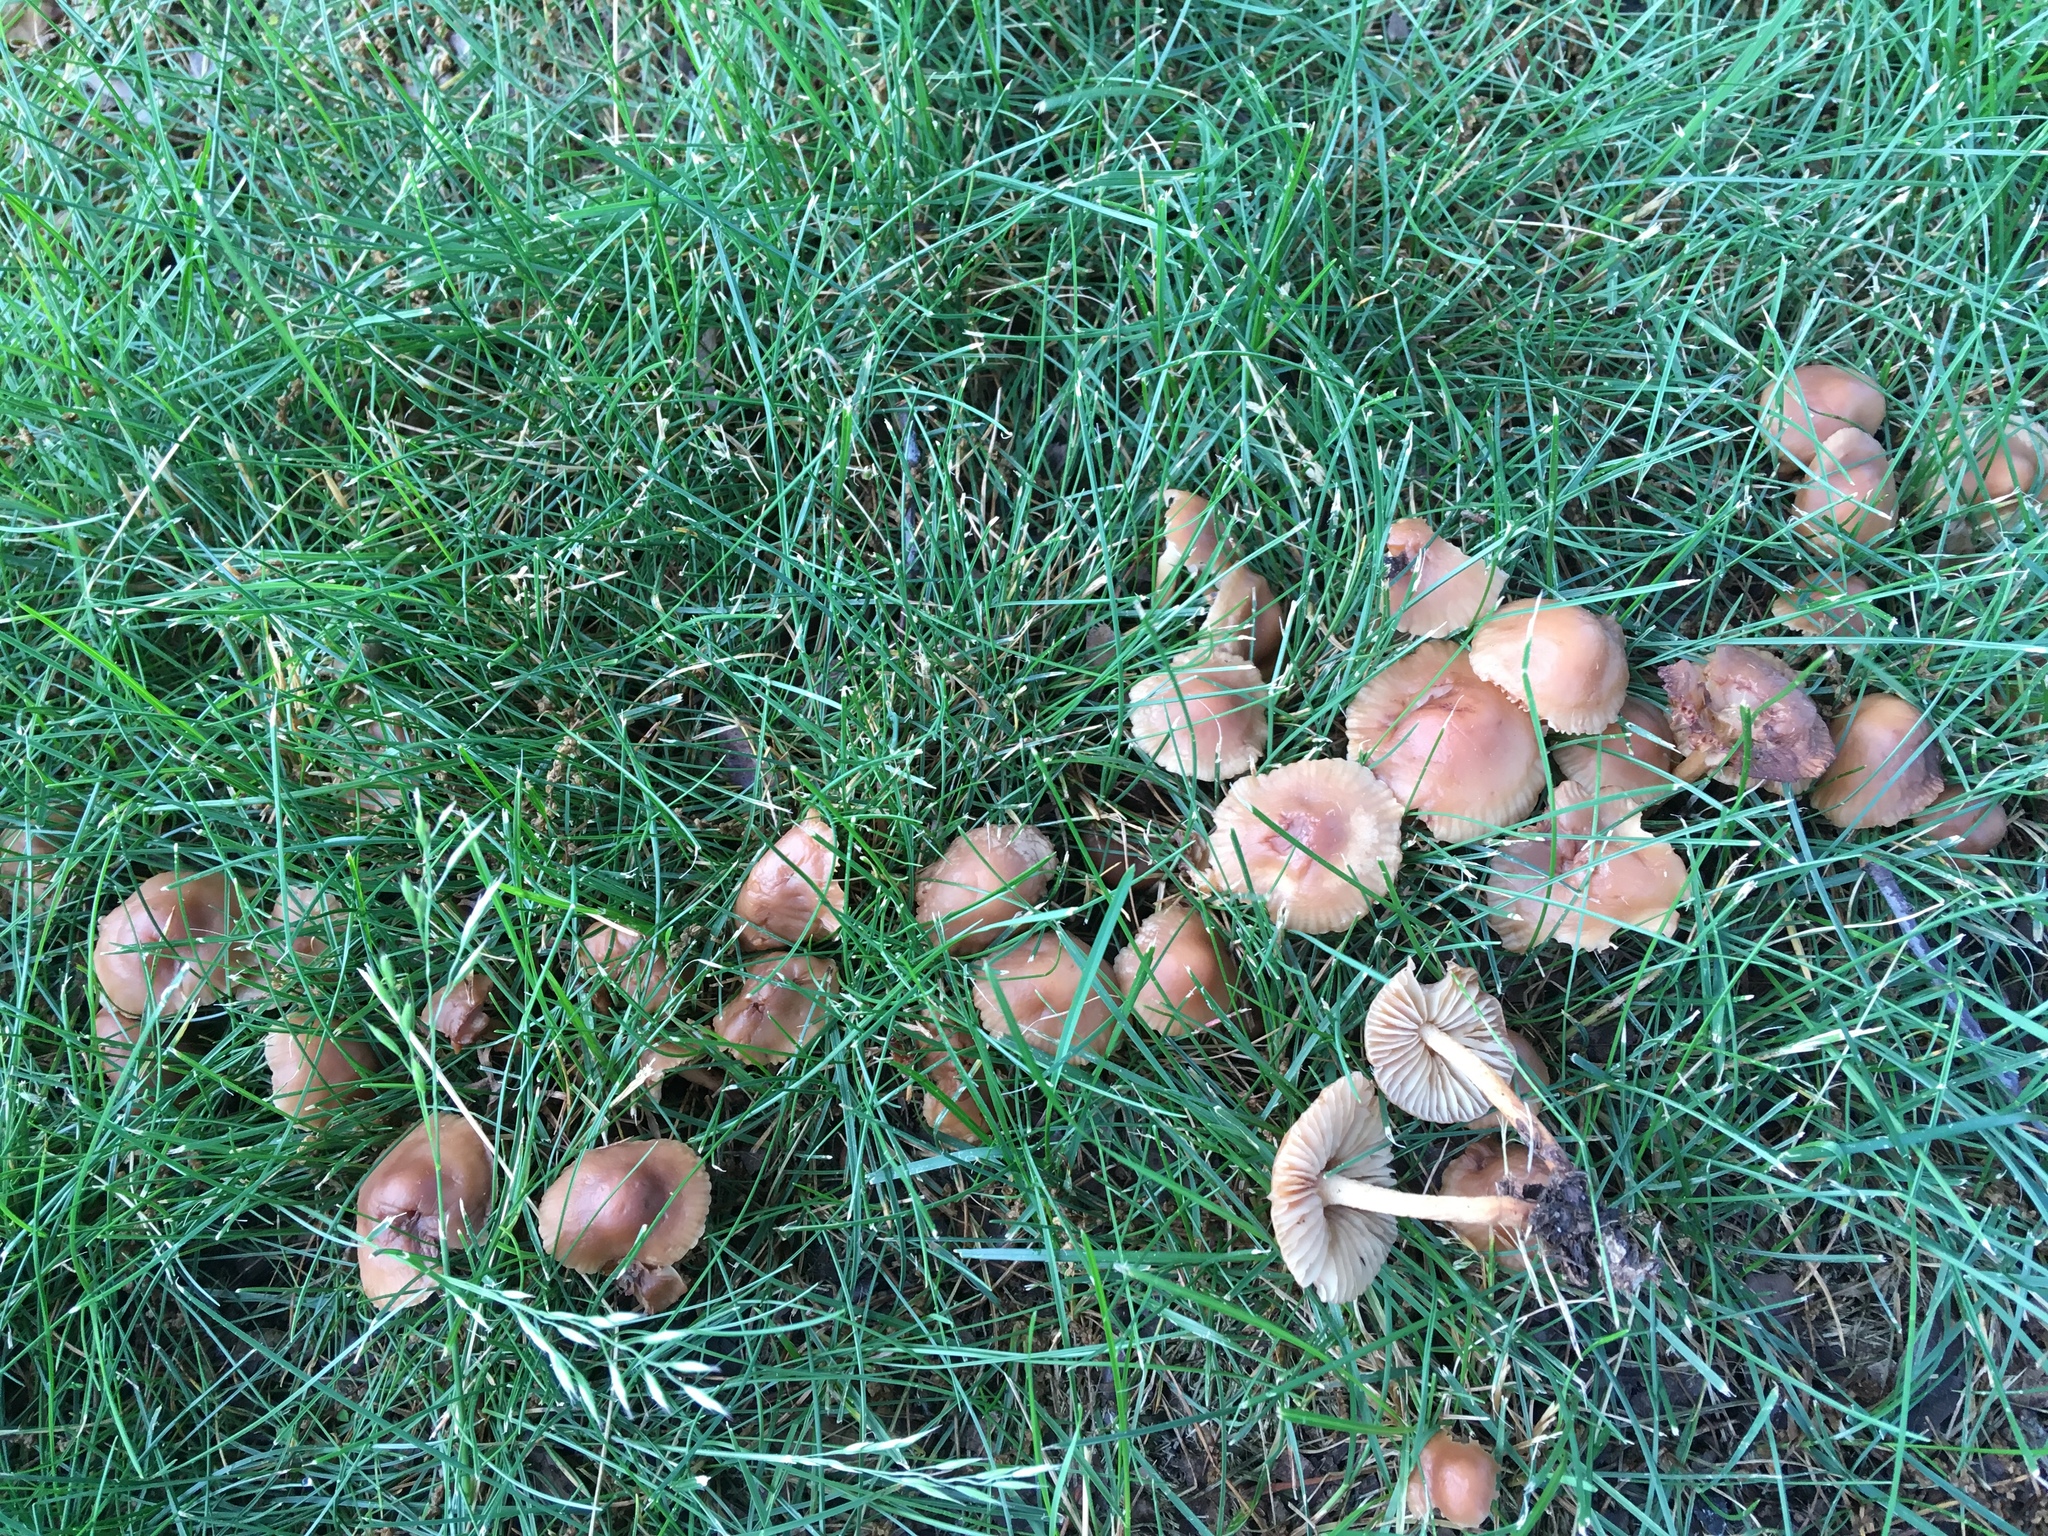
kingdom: Fungi
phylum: Basidiomycota
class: Agaricomycetes
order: Agaricales
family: Marasmiaceae
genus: Marasmius
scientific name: Marasmius oreades
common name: Fairy ring champignon
